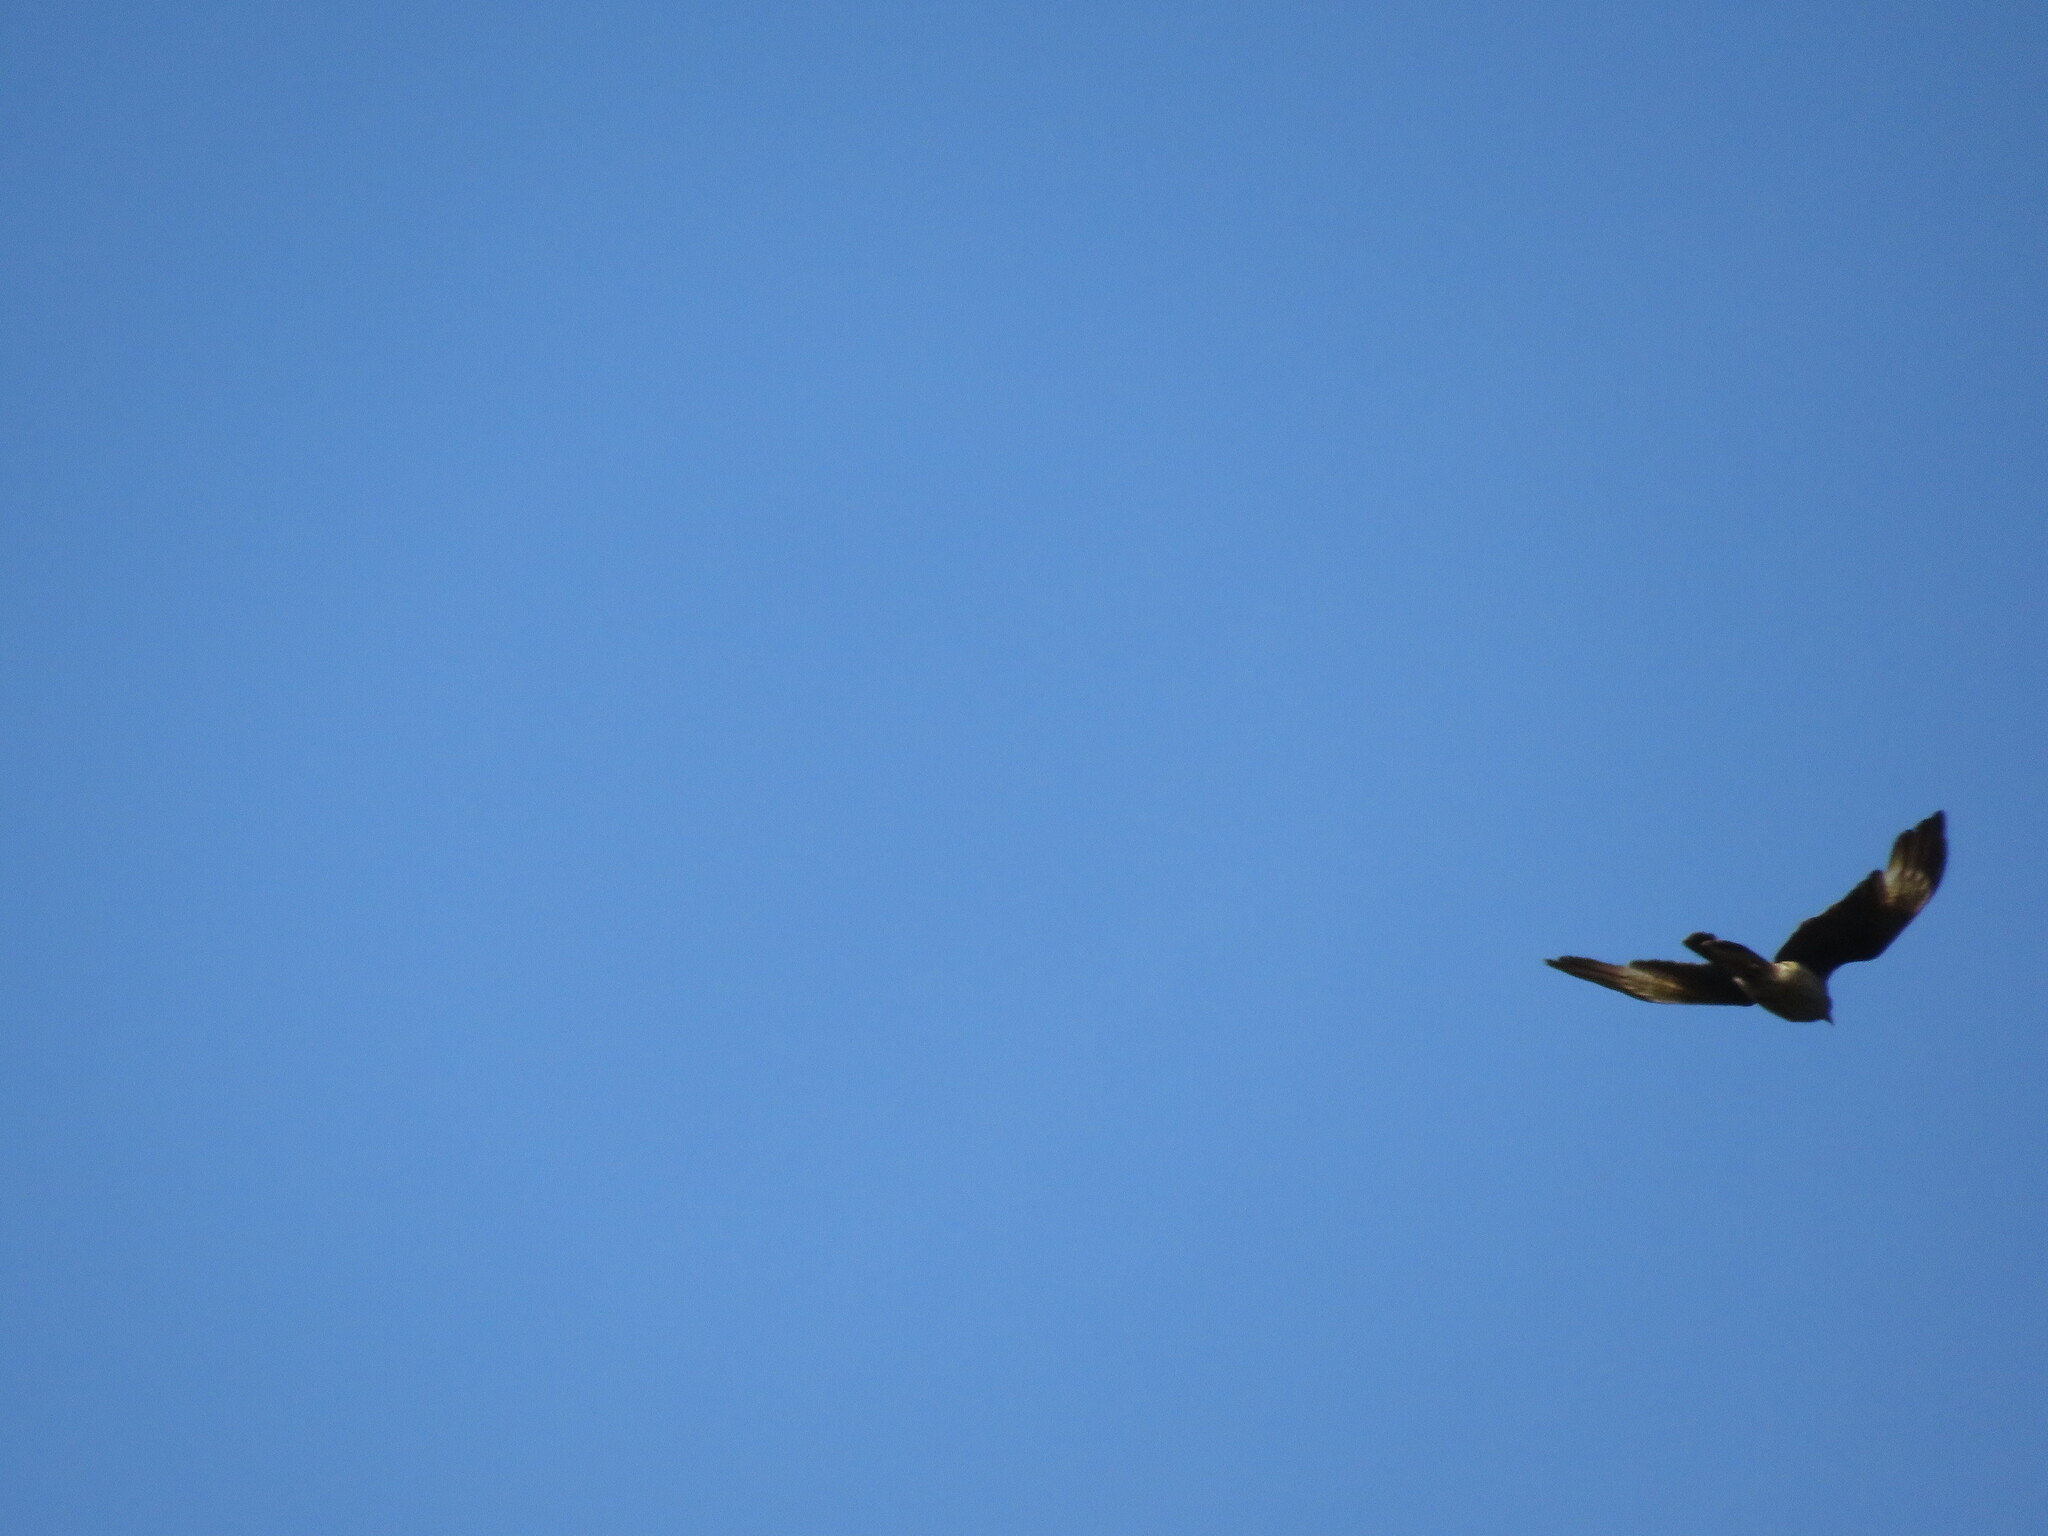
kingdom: Animalia
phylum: Chordata
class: Aves
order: Falconiformes
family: Falconidae
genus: Daptrius
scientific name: Daptrius
